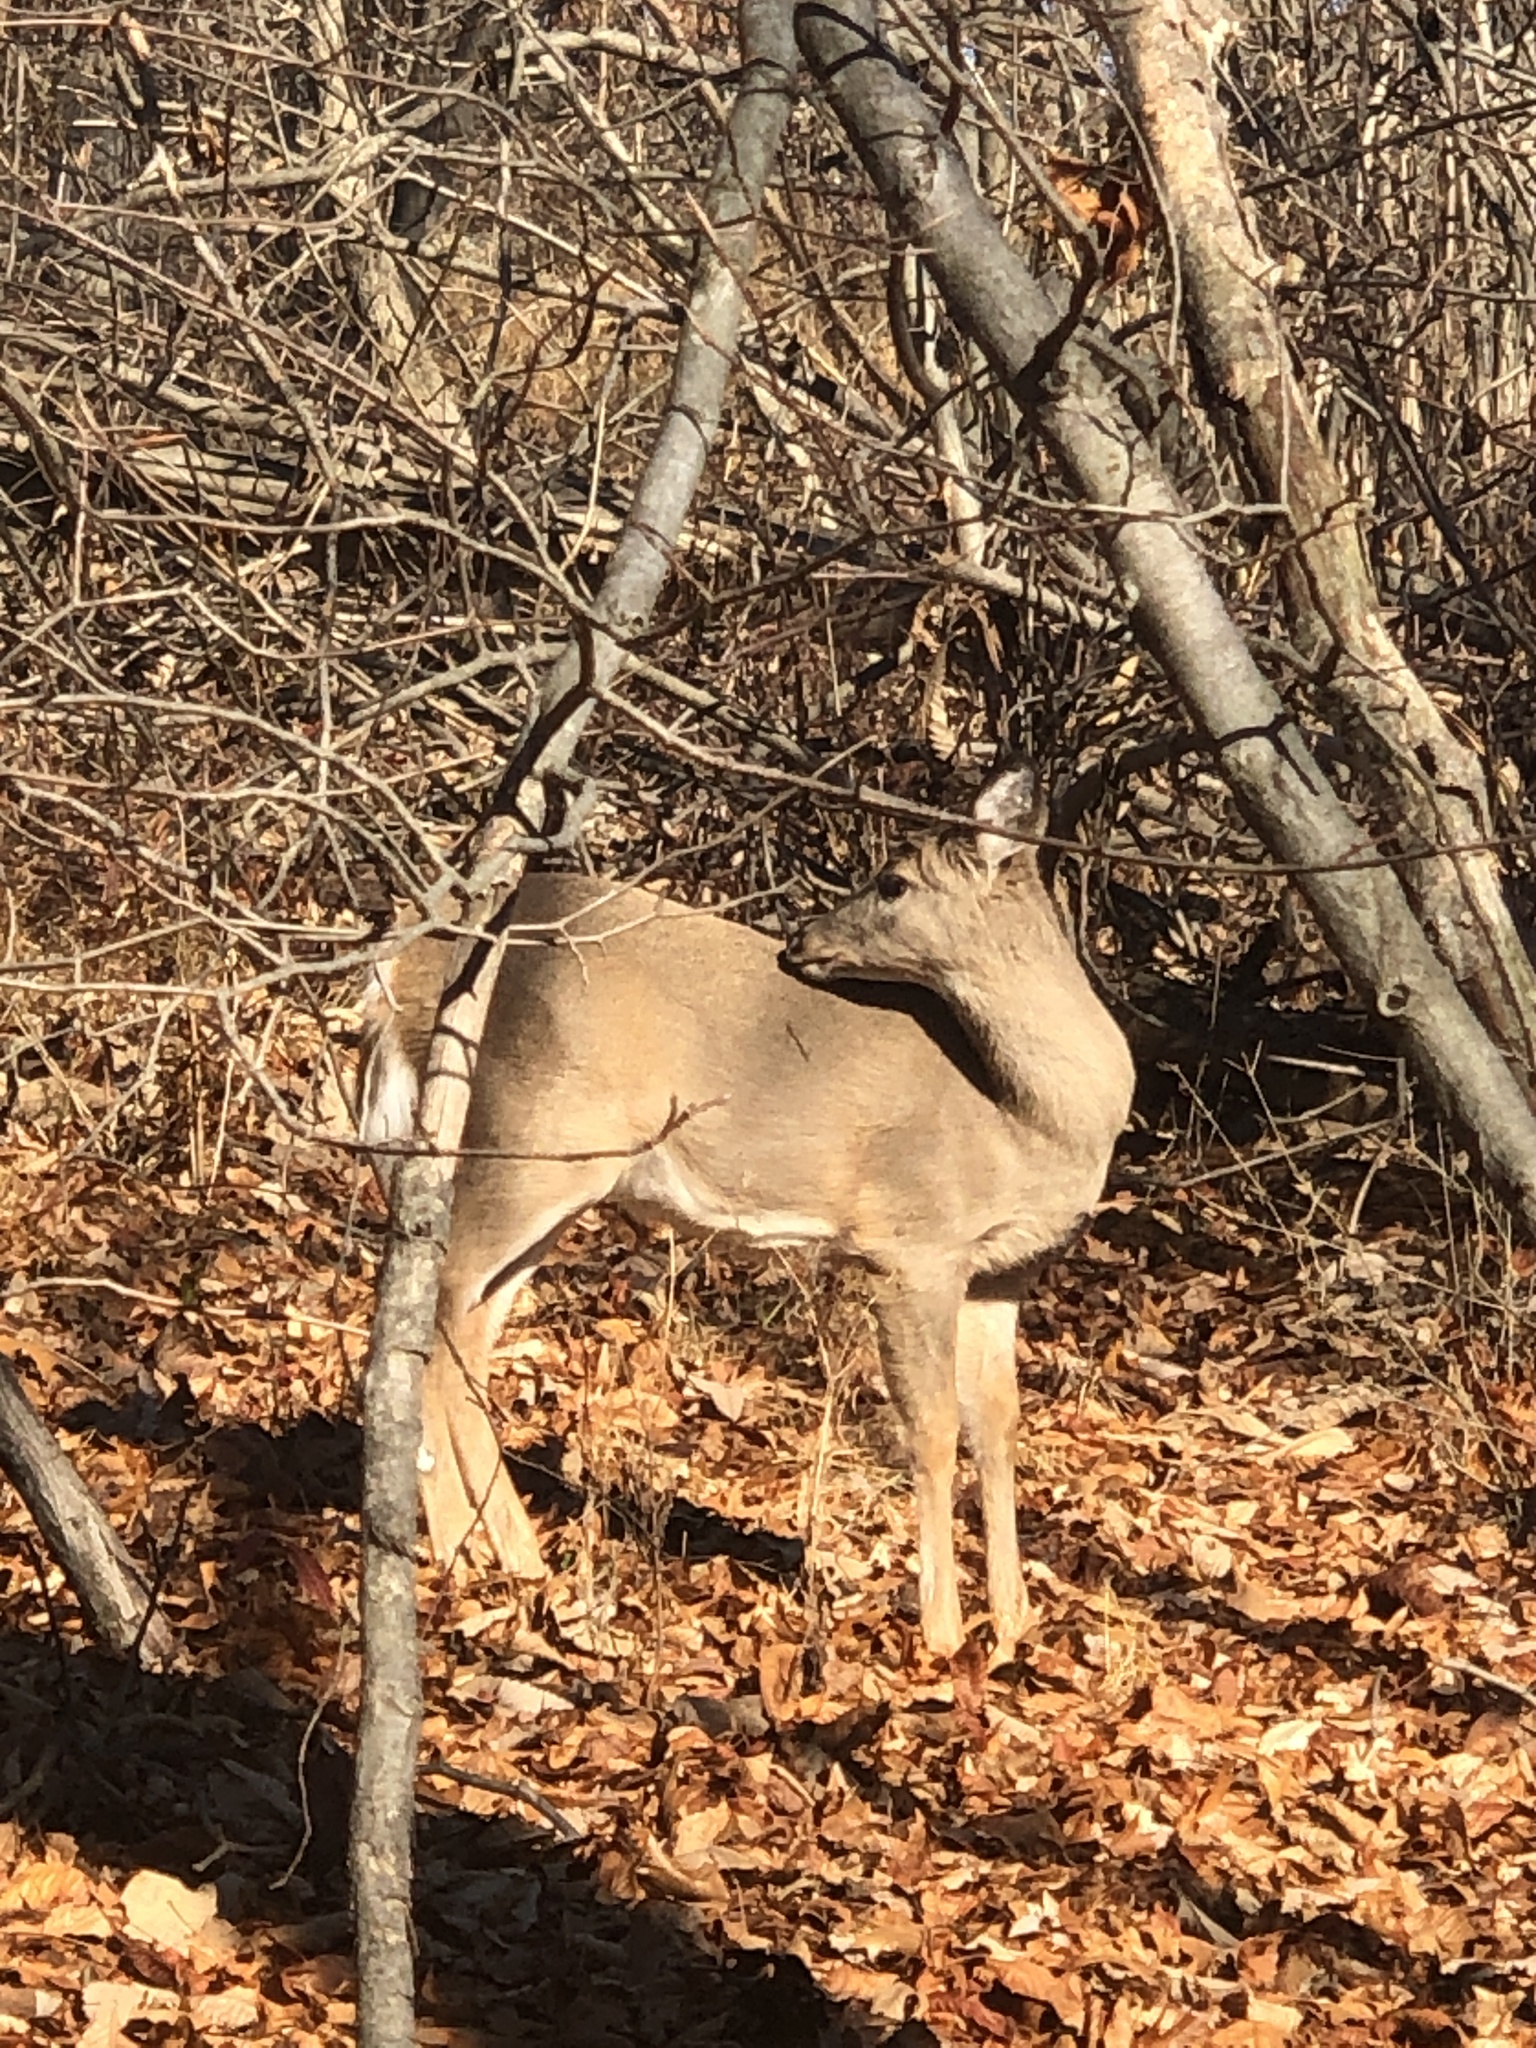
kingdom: Animalia
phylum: Chordata
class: Mammalia
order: Artiodactyla
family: Cervidae
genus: Odocoileus
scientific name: Odocoileus virginianus
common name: White-tailed deer
